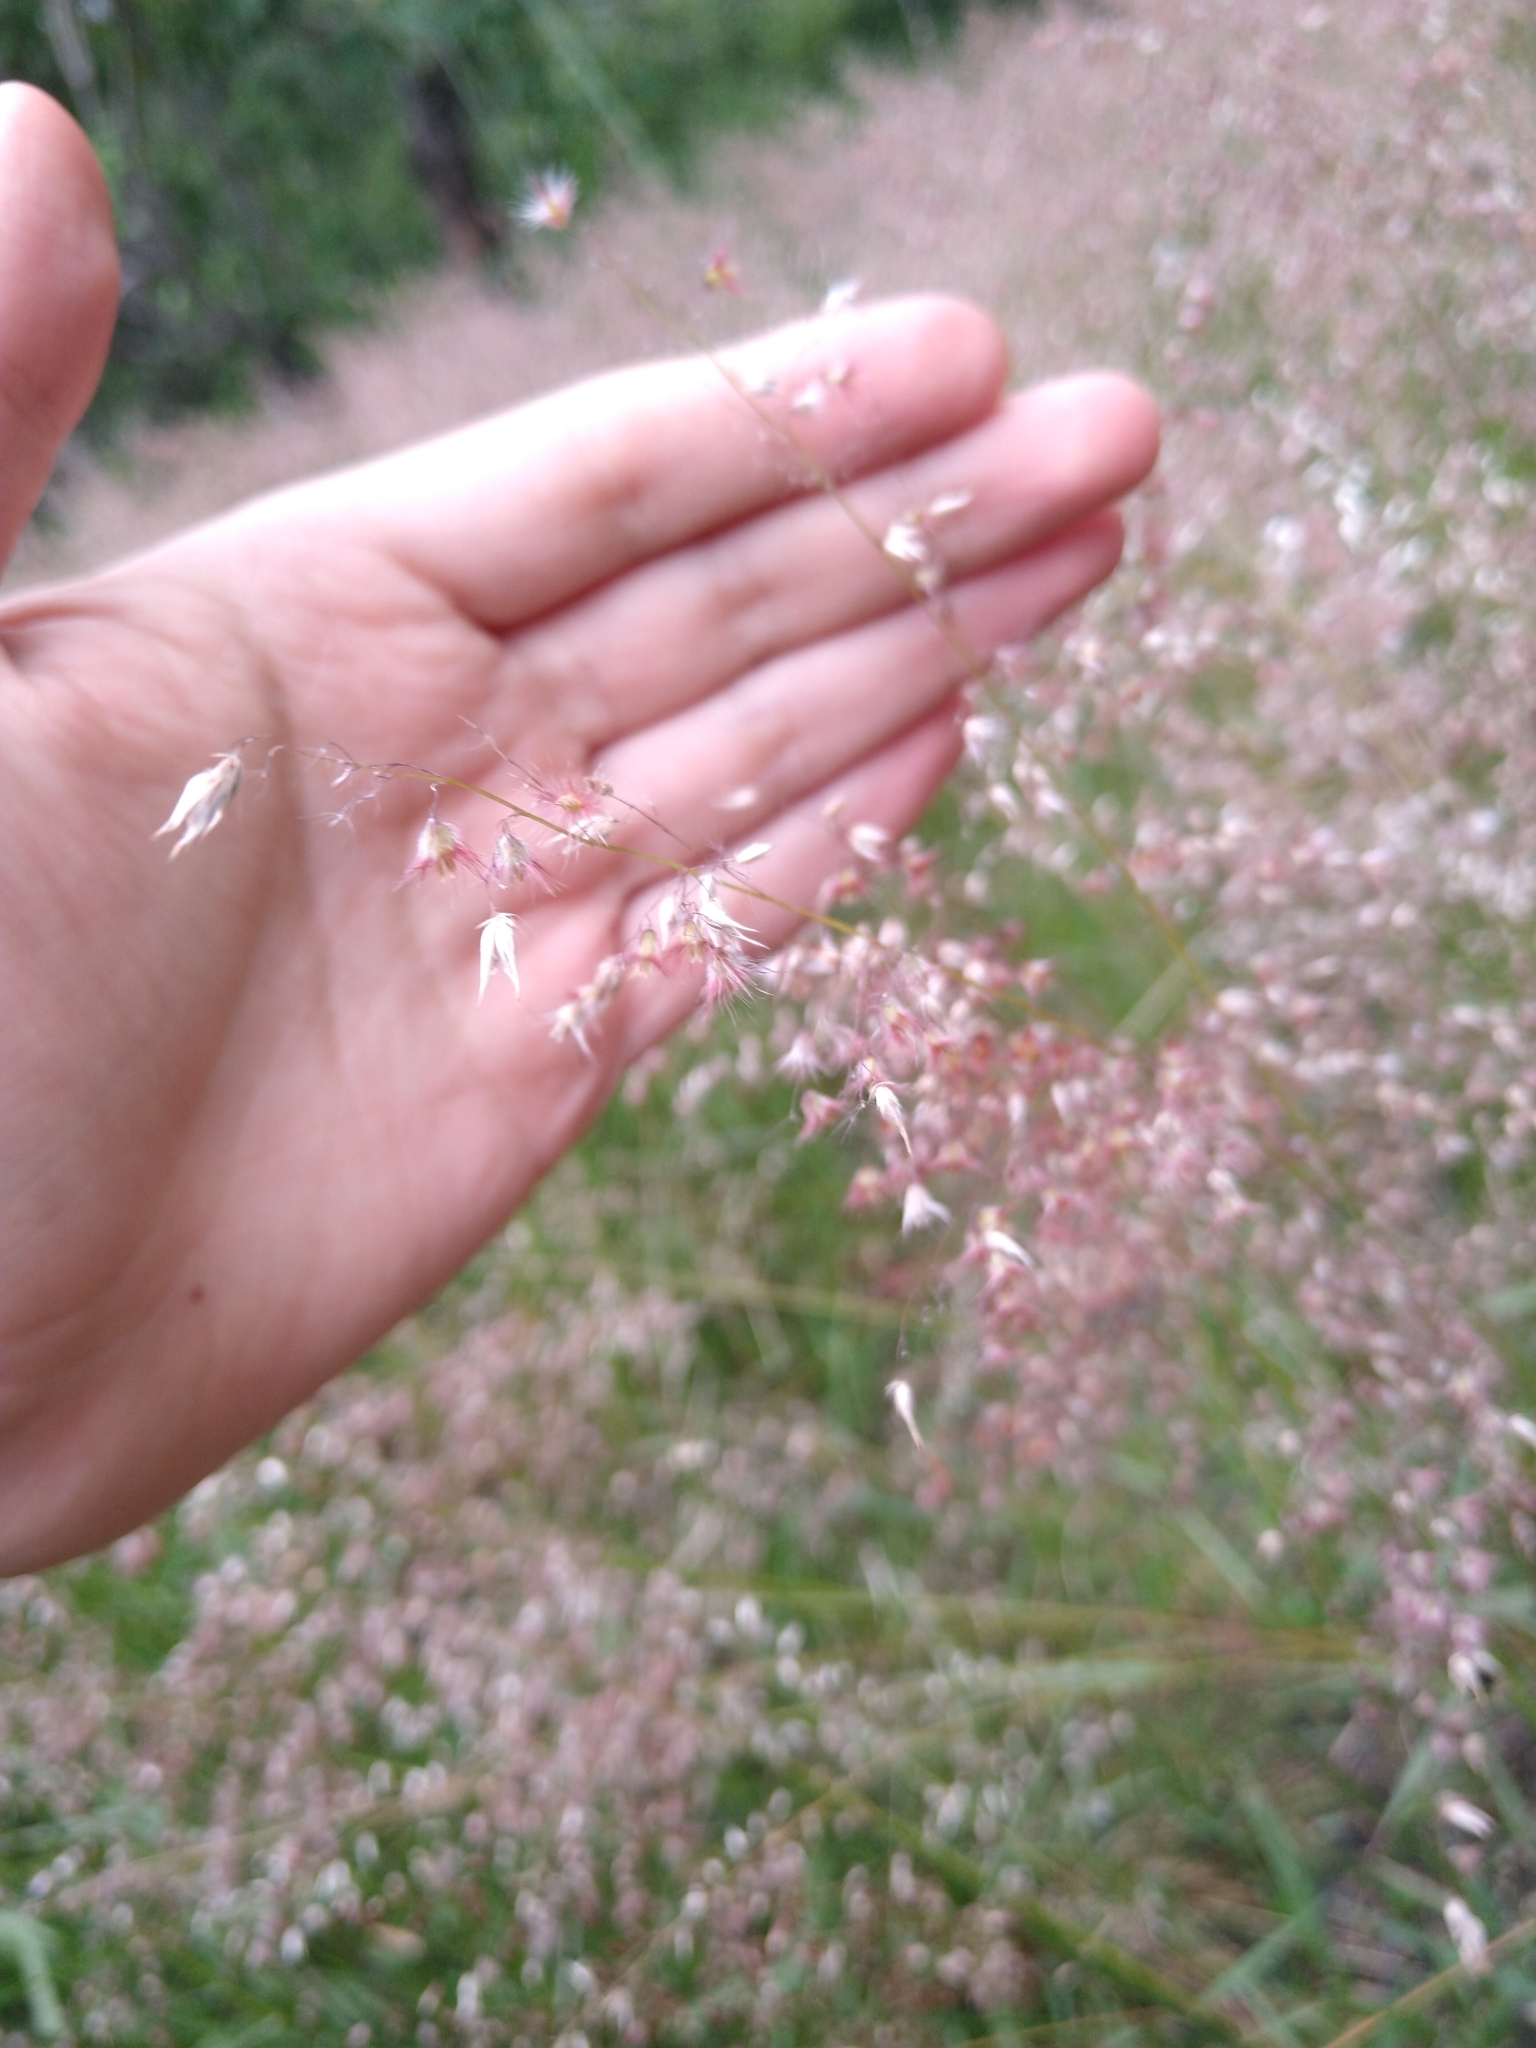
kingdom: Plantae
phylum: Tracheophyta
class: Liliopsida
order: Poales
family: Poaceae
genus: Melinis
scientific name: Melinis repens
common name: Rose natal grass
